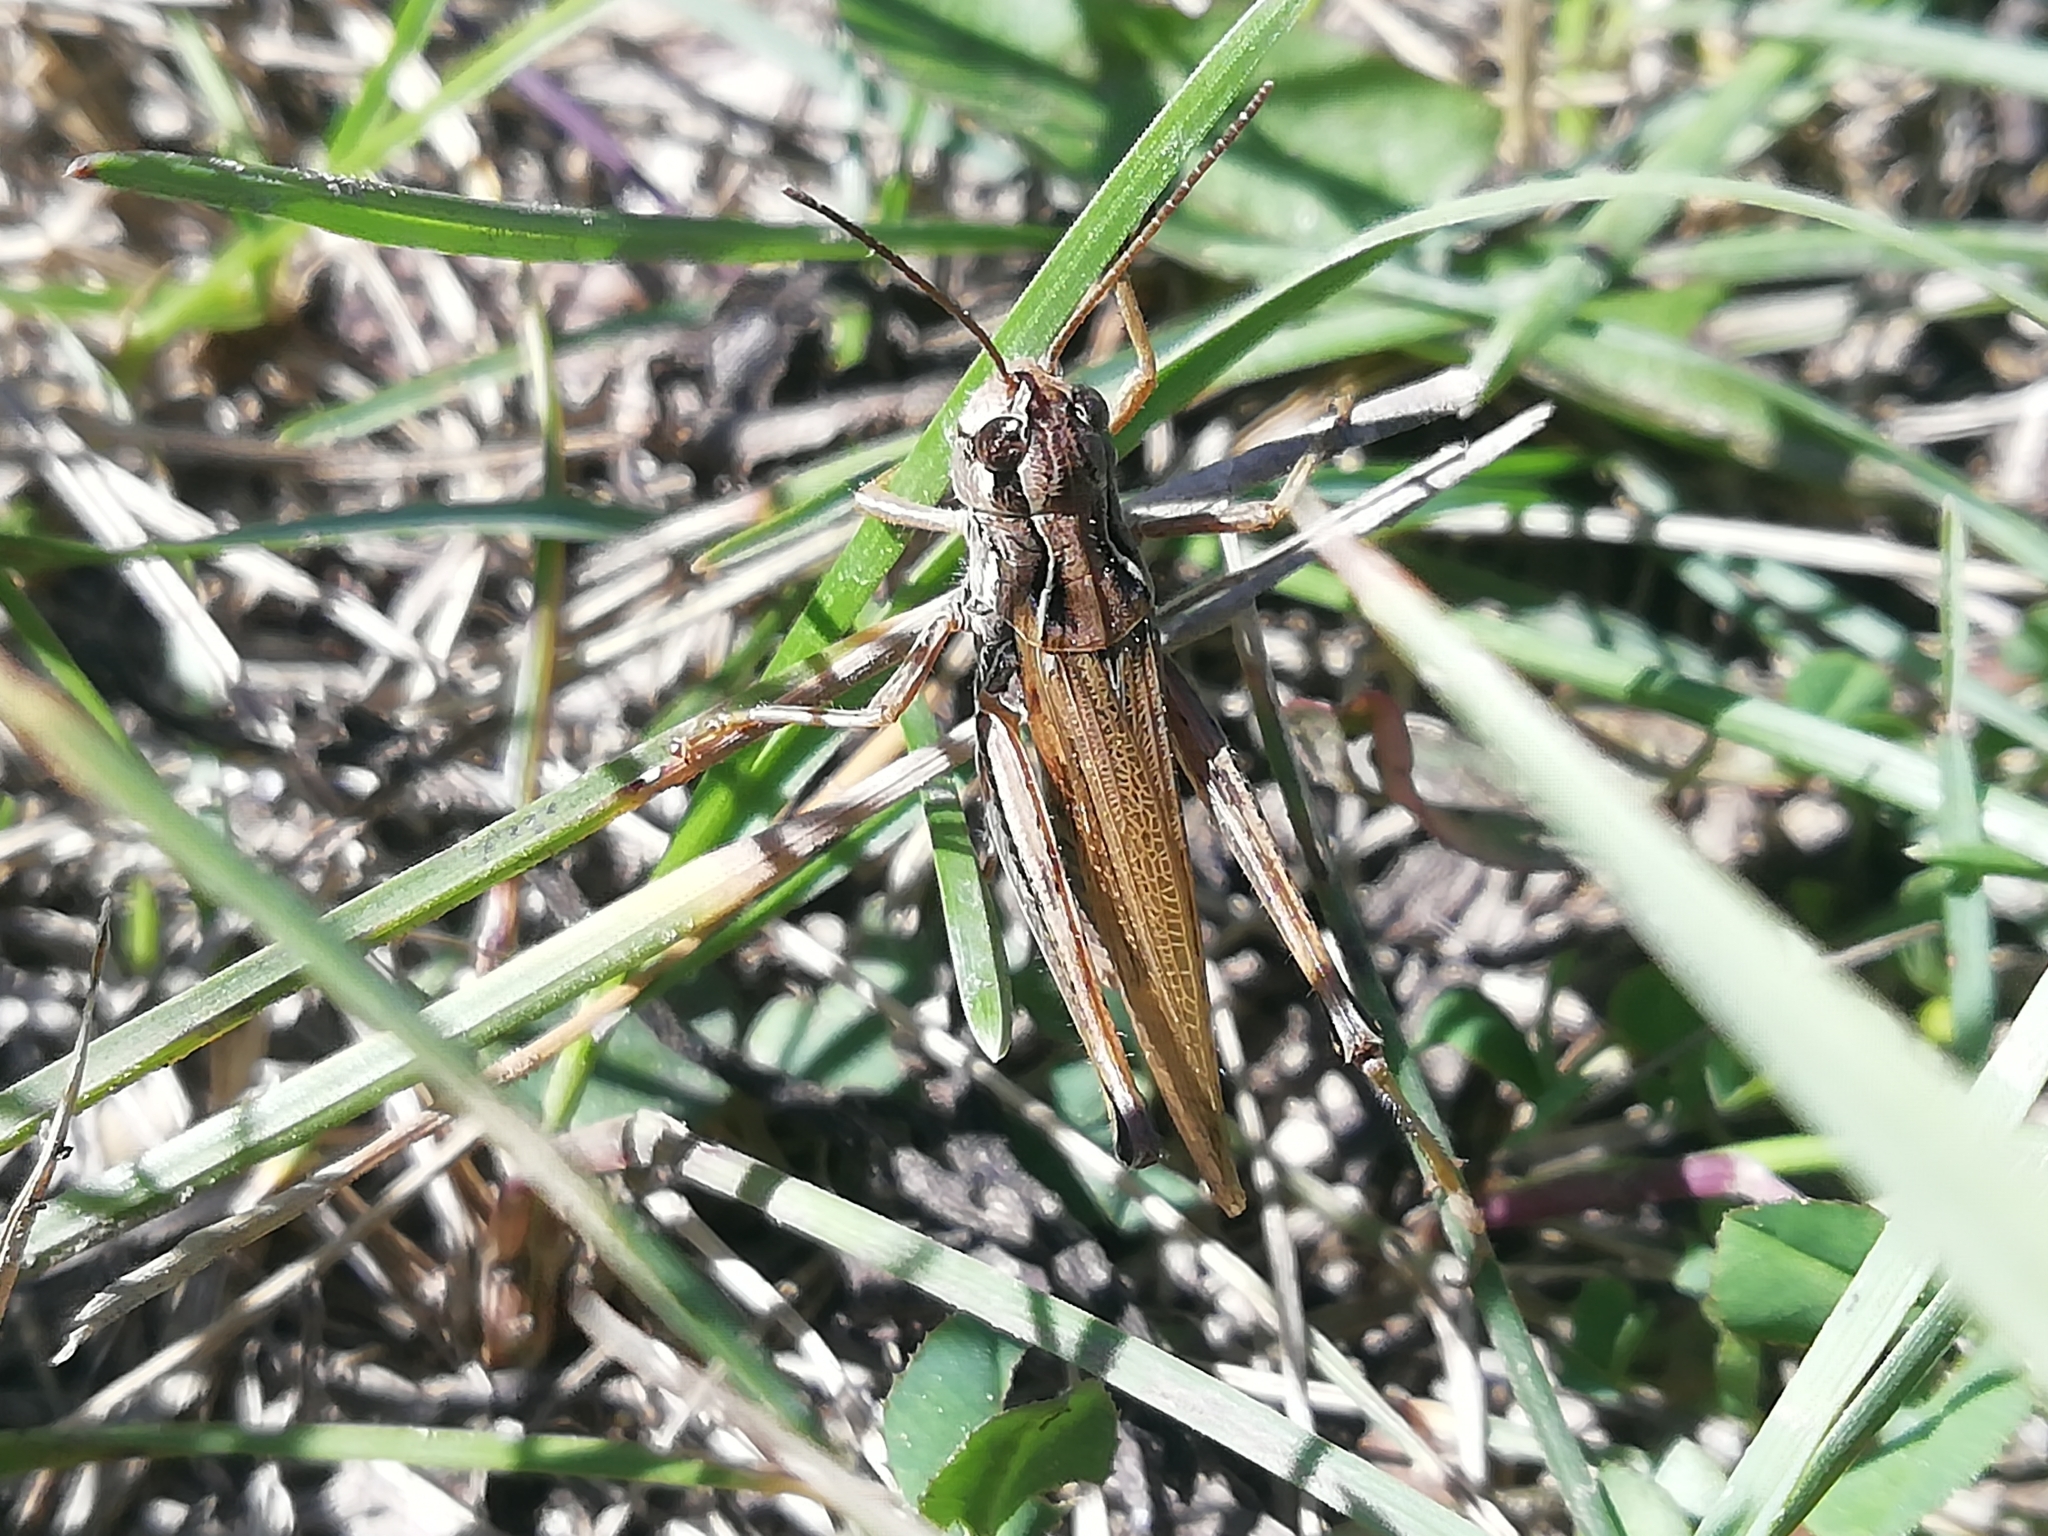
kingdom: Animalia
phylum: Arthropoda
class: Insecta
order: Orthoptera
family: Acrididae
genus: Chorthippus
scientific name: Chorthippus fallax
